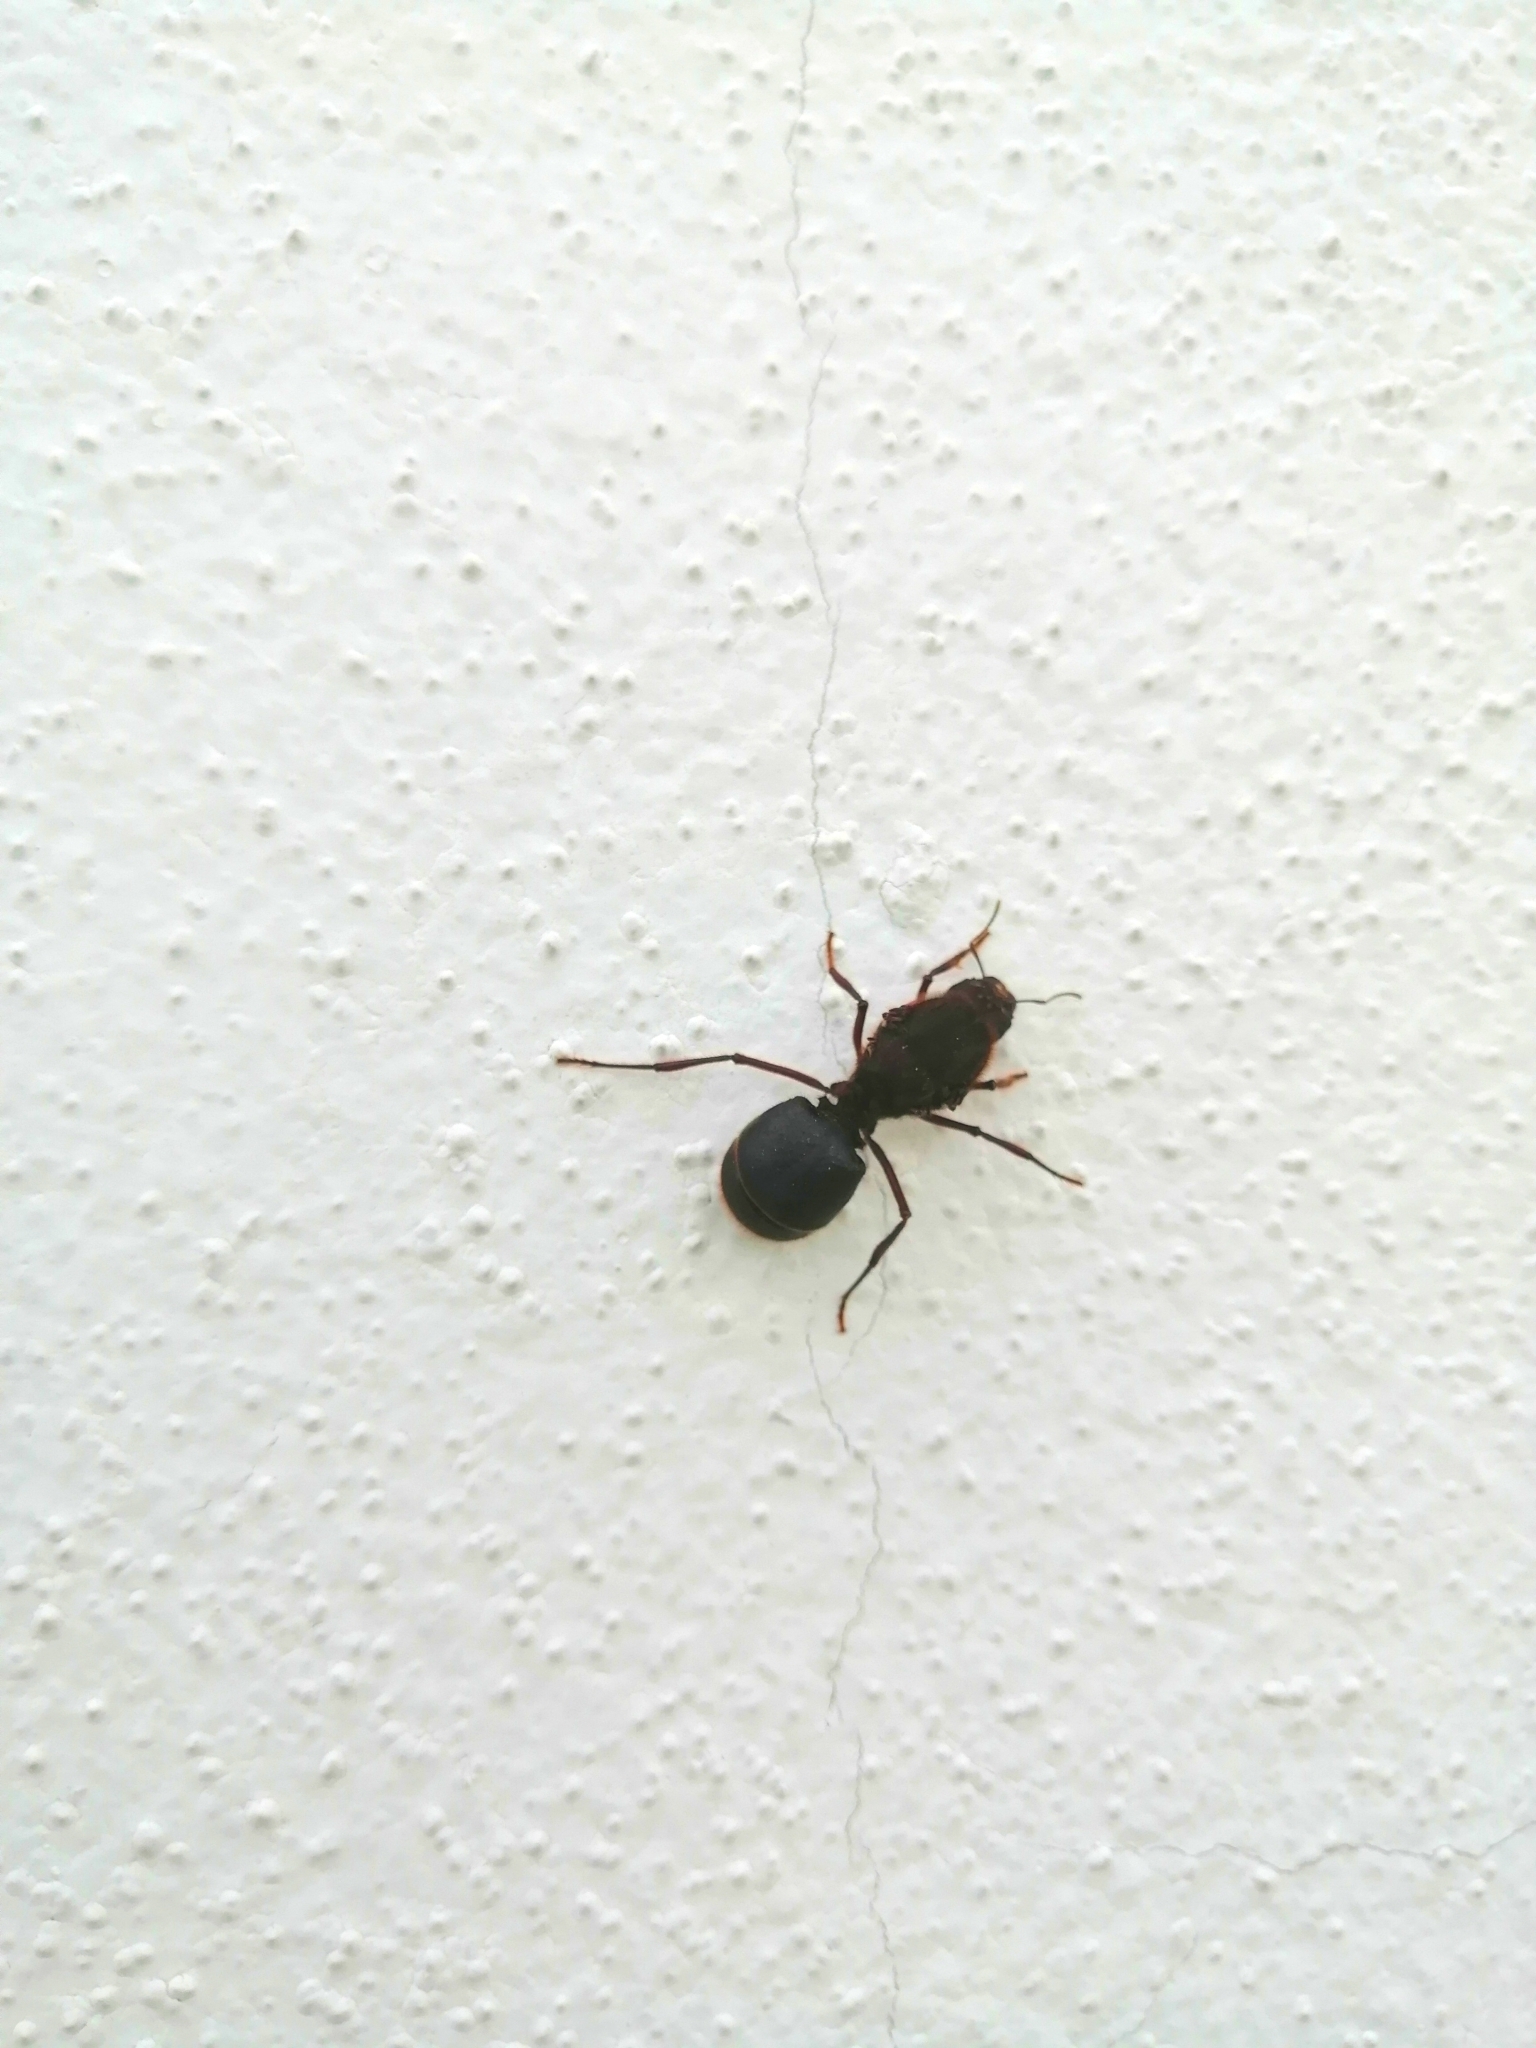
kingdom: Animalia
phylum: Arthropoda
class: Insecta
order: Hymenoptera
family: Formicidae
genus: Atta
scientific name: Atta mexicana
